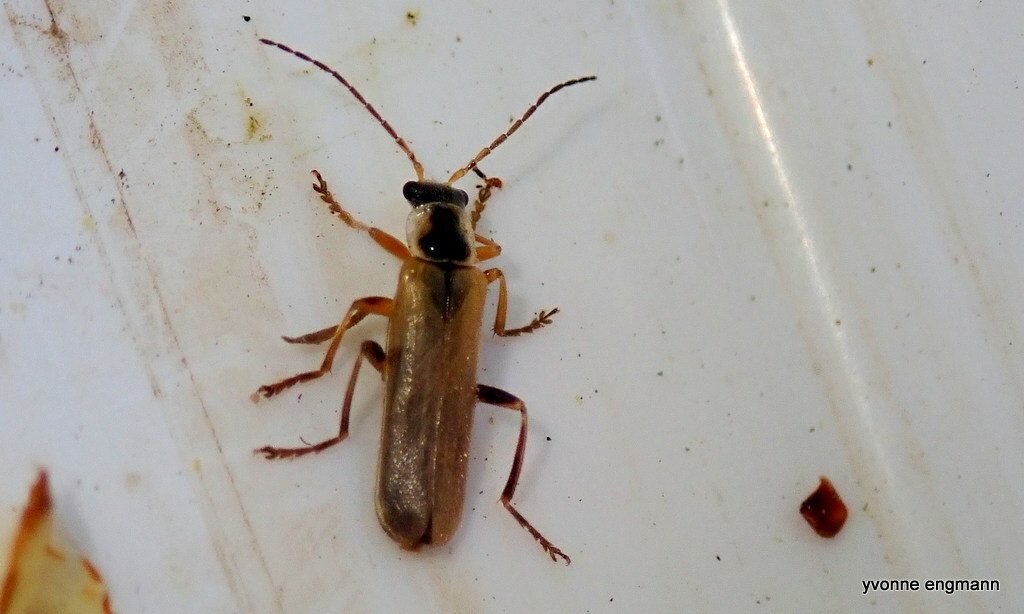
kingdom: Animalia
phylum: Arthropoda
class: Insecta
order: Coleoptera
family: Cantharidae
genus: Cantharis
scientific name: Cantharis decipiens
